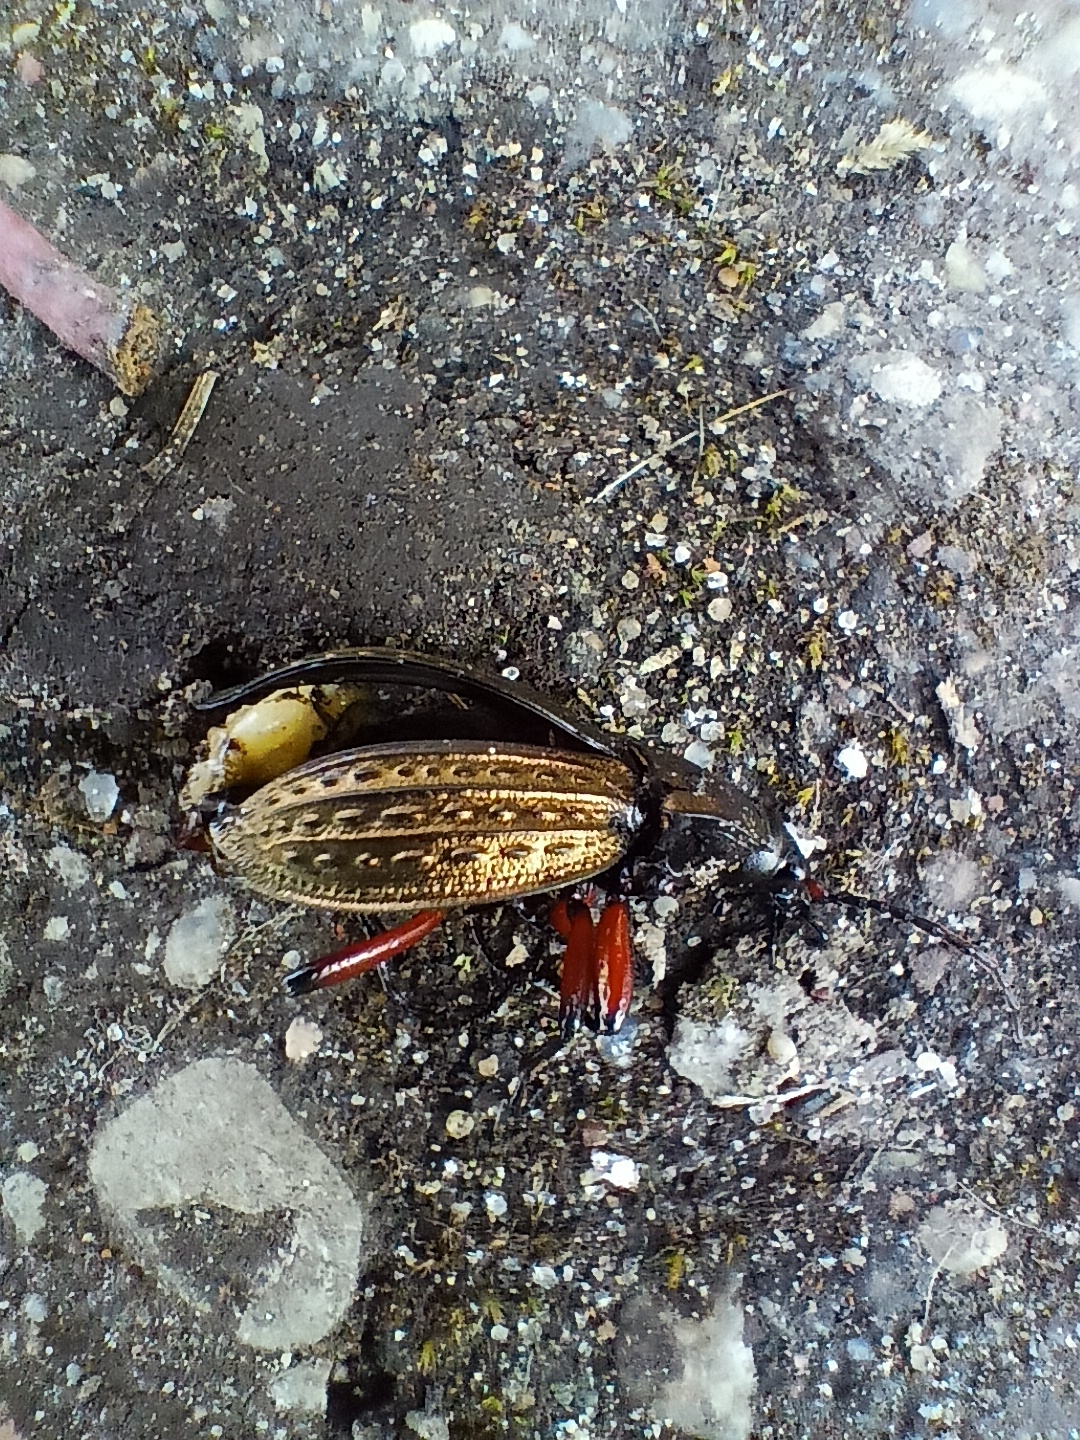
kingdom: Animalia
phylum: Arthropoda
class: Insecta
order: Coleoptera
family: Carabidae
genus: Carabus
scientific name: Carabus cancellatus
